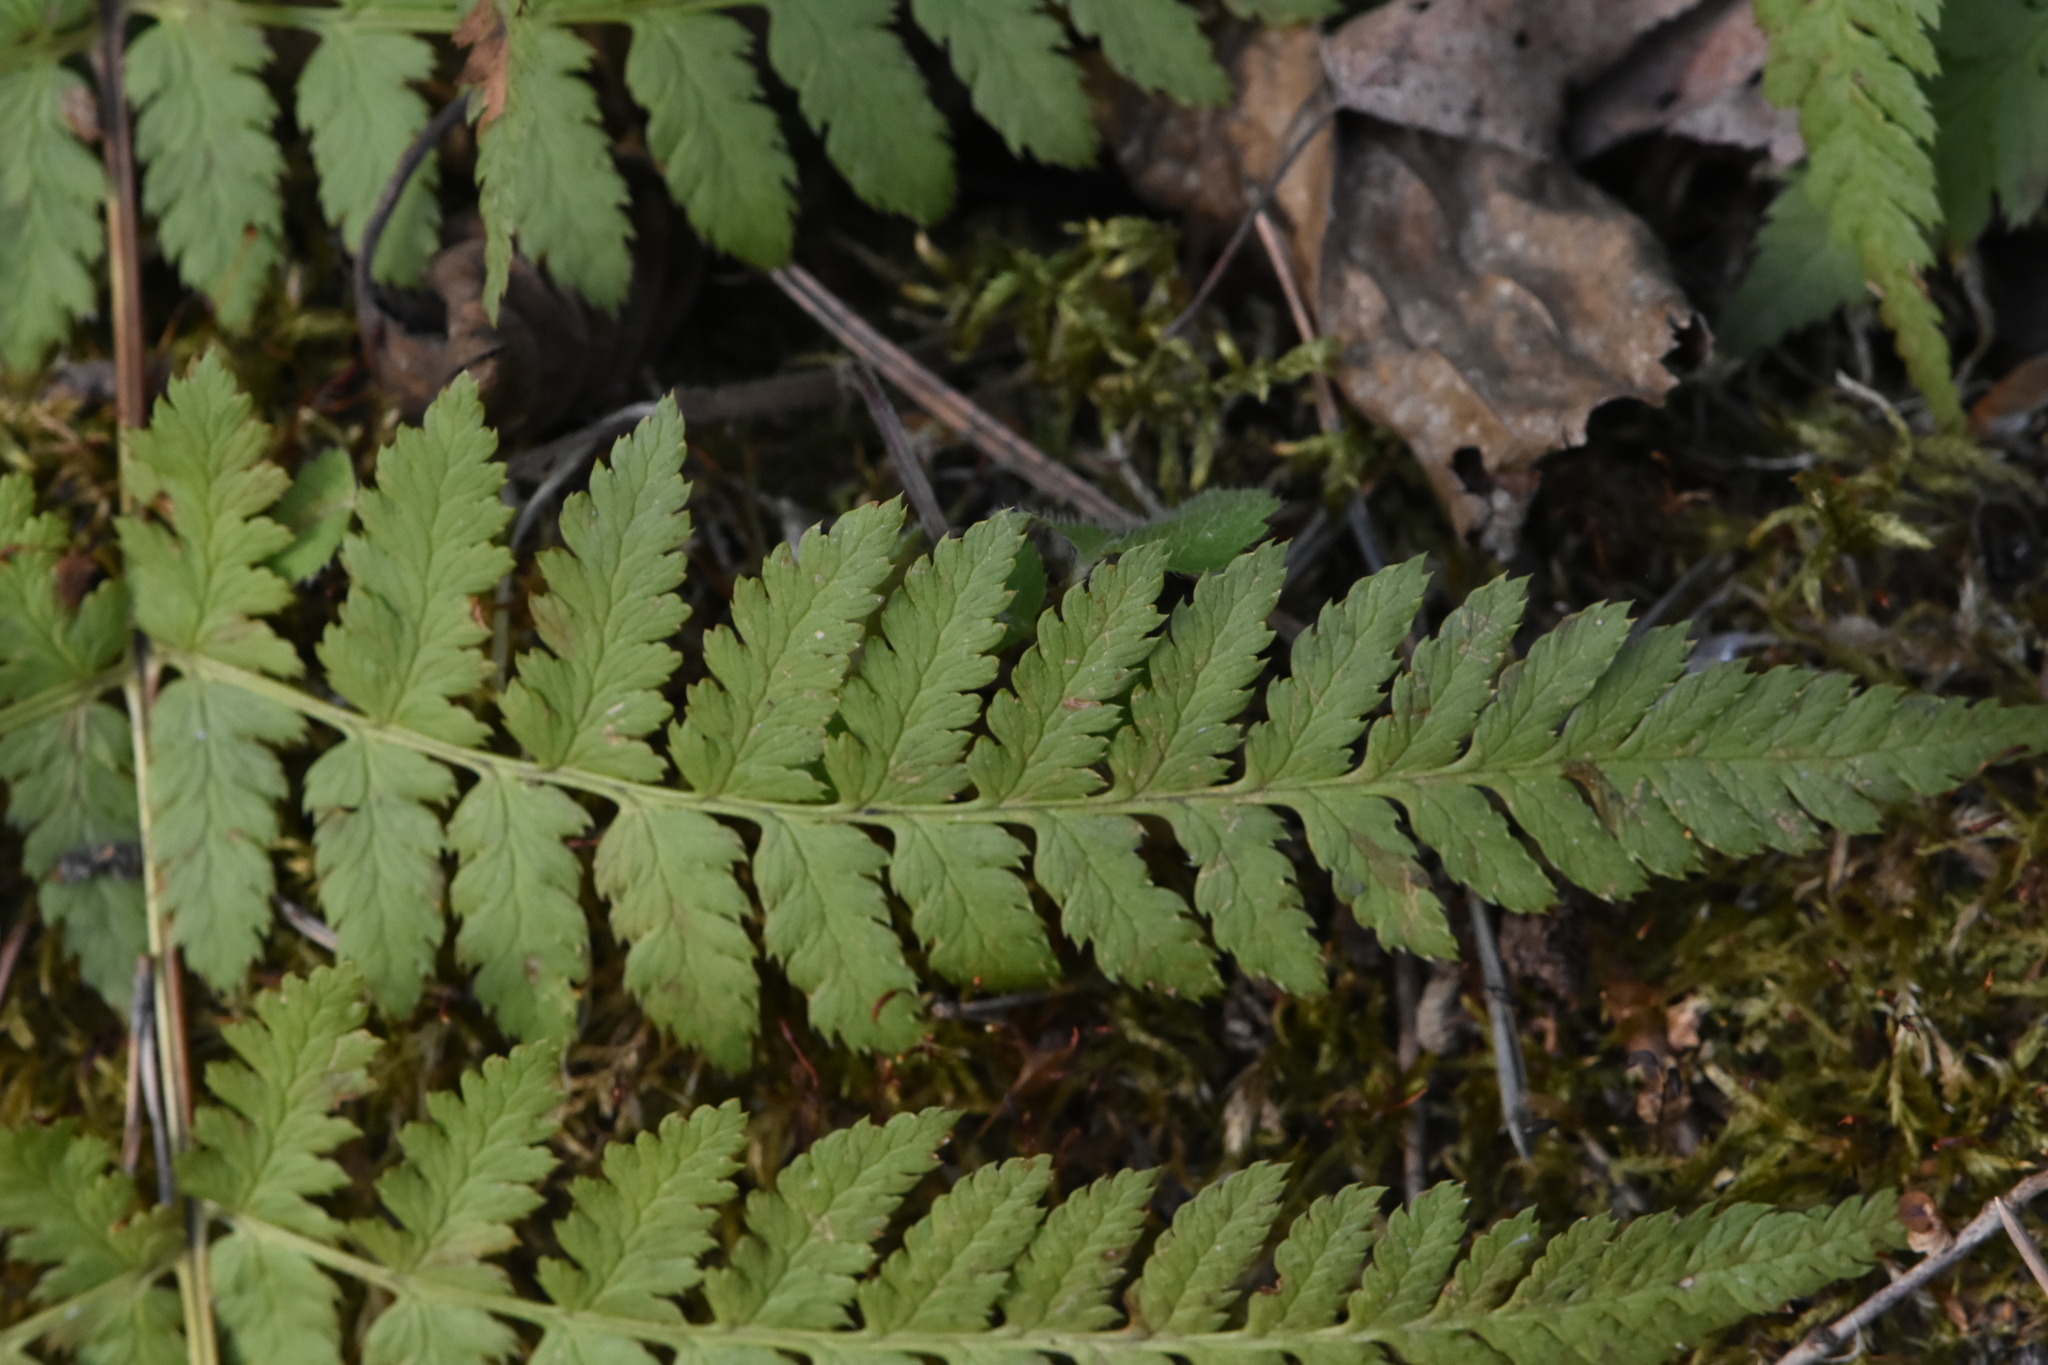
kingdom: Plantae
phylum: Tracheophyta
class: Polypodiopsida
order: Polypodiales
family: Dryopteridaceae
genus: Dryopteris
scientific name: Dryopteris carthusiana
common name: Narrow buckler-fern
